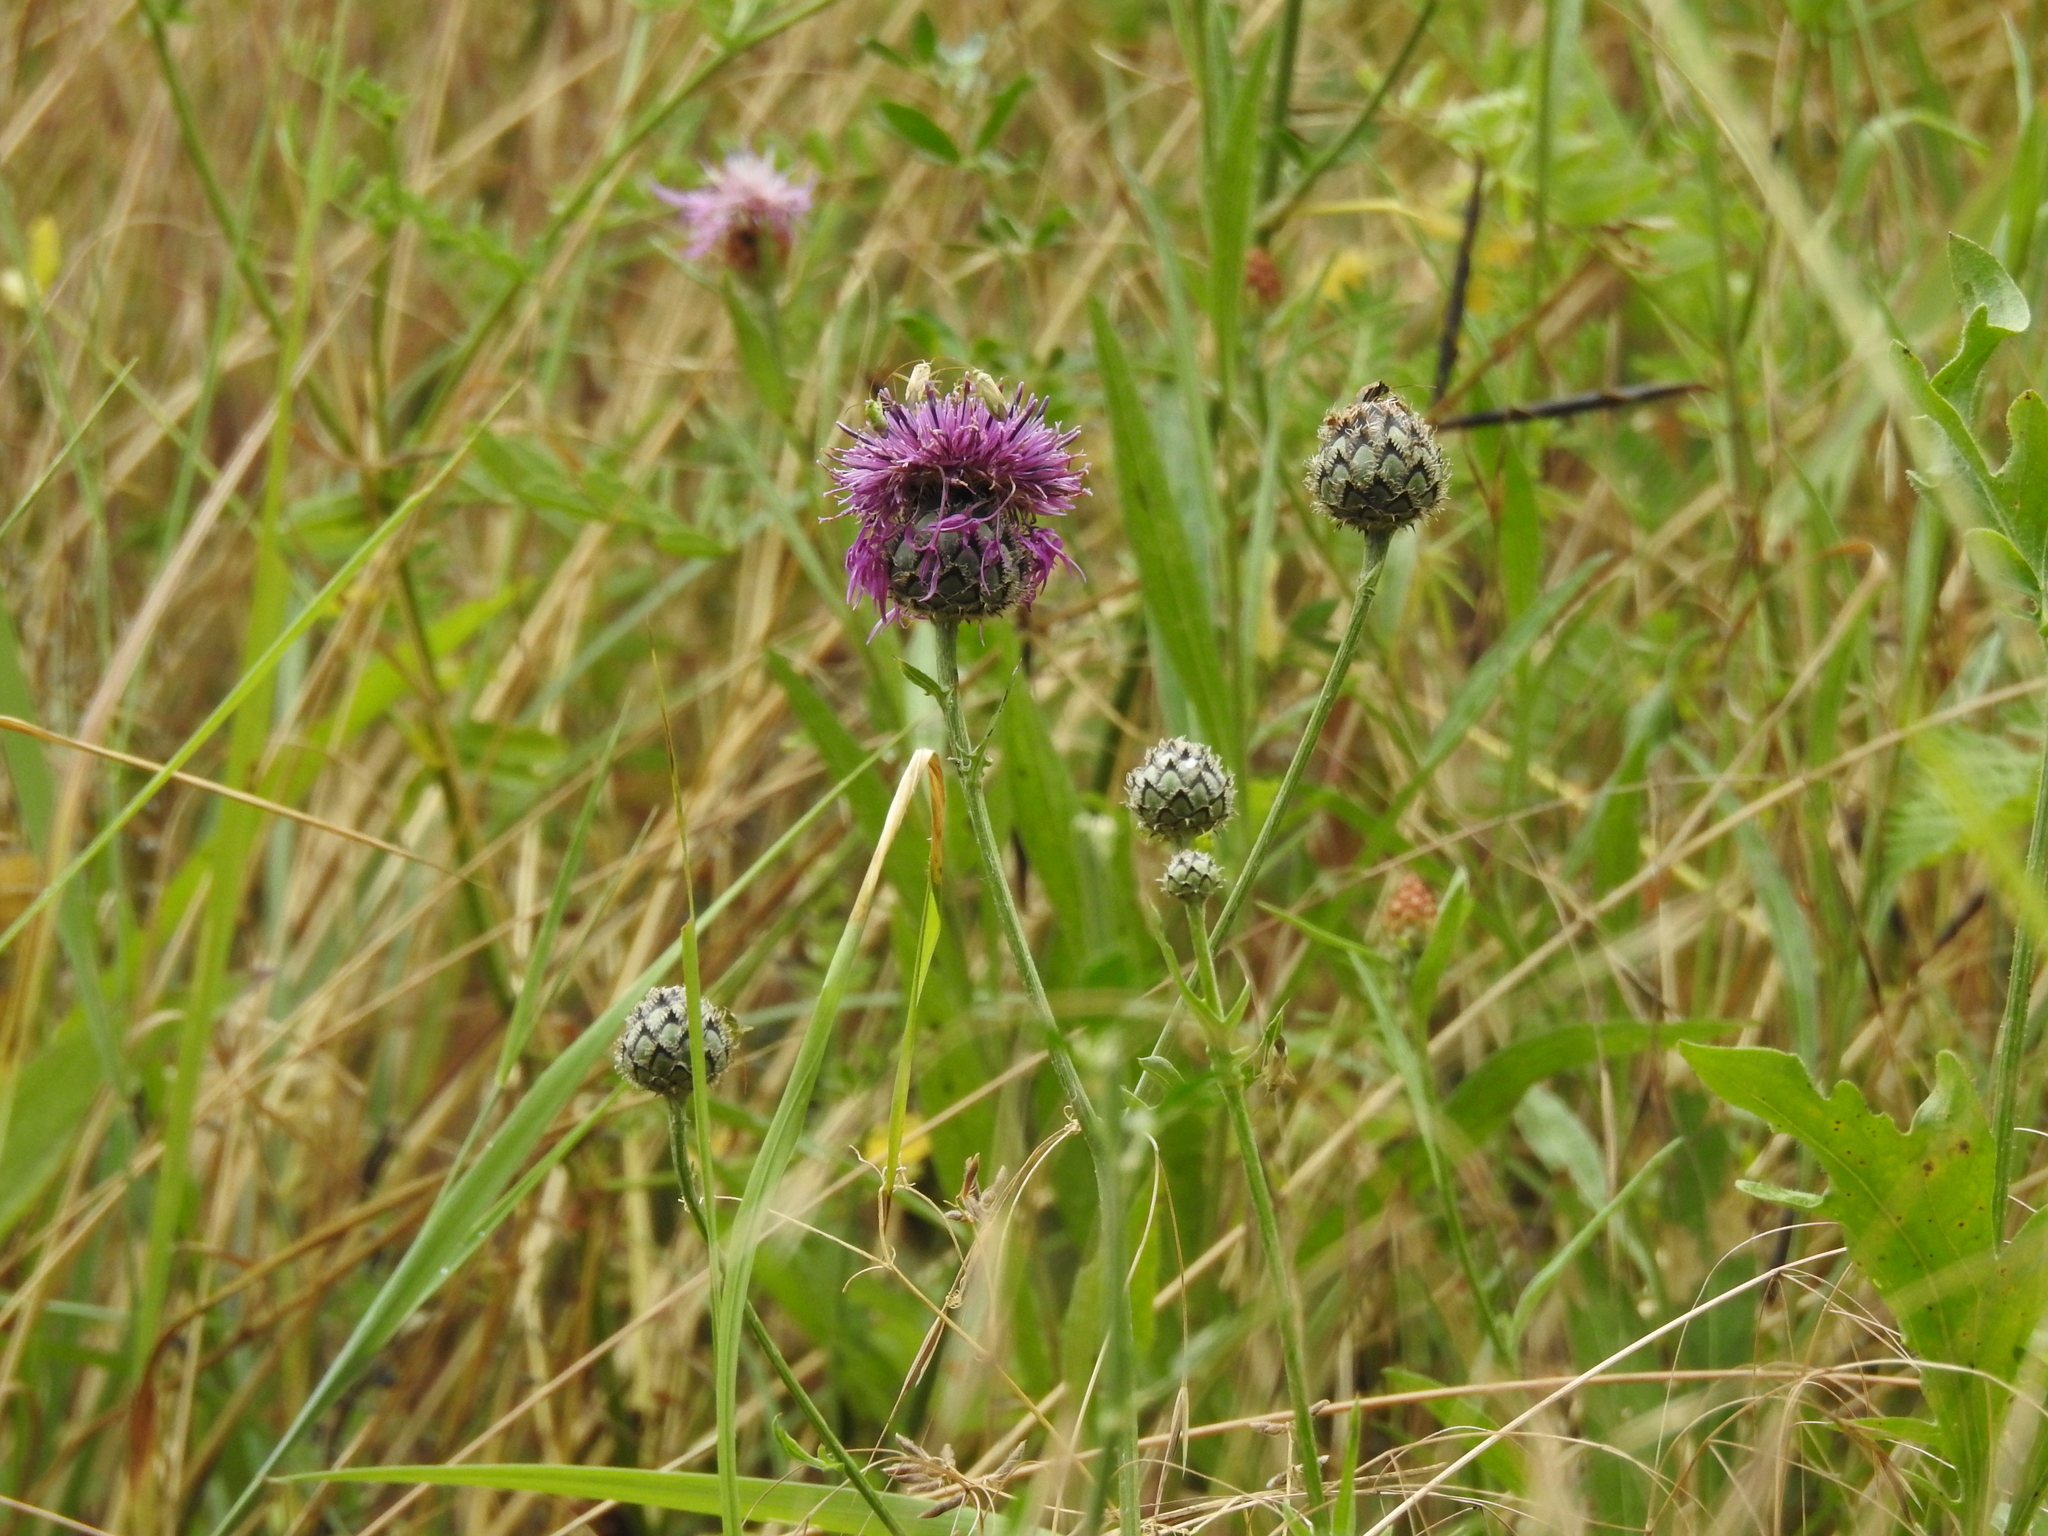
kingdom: Plantae
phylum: Tracheophyta
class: Magnoliopsida
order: Asterales
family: Asteraceae
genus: Centaurea
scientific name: Centaurea scabiosa
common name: Greater knapweed
